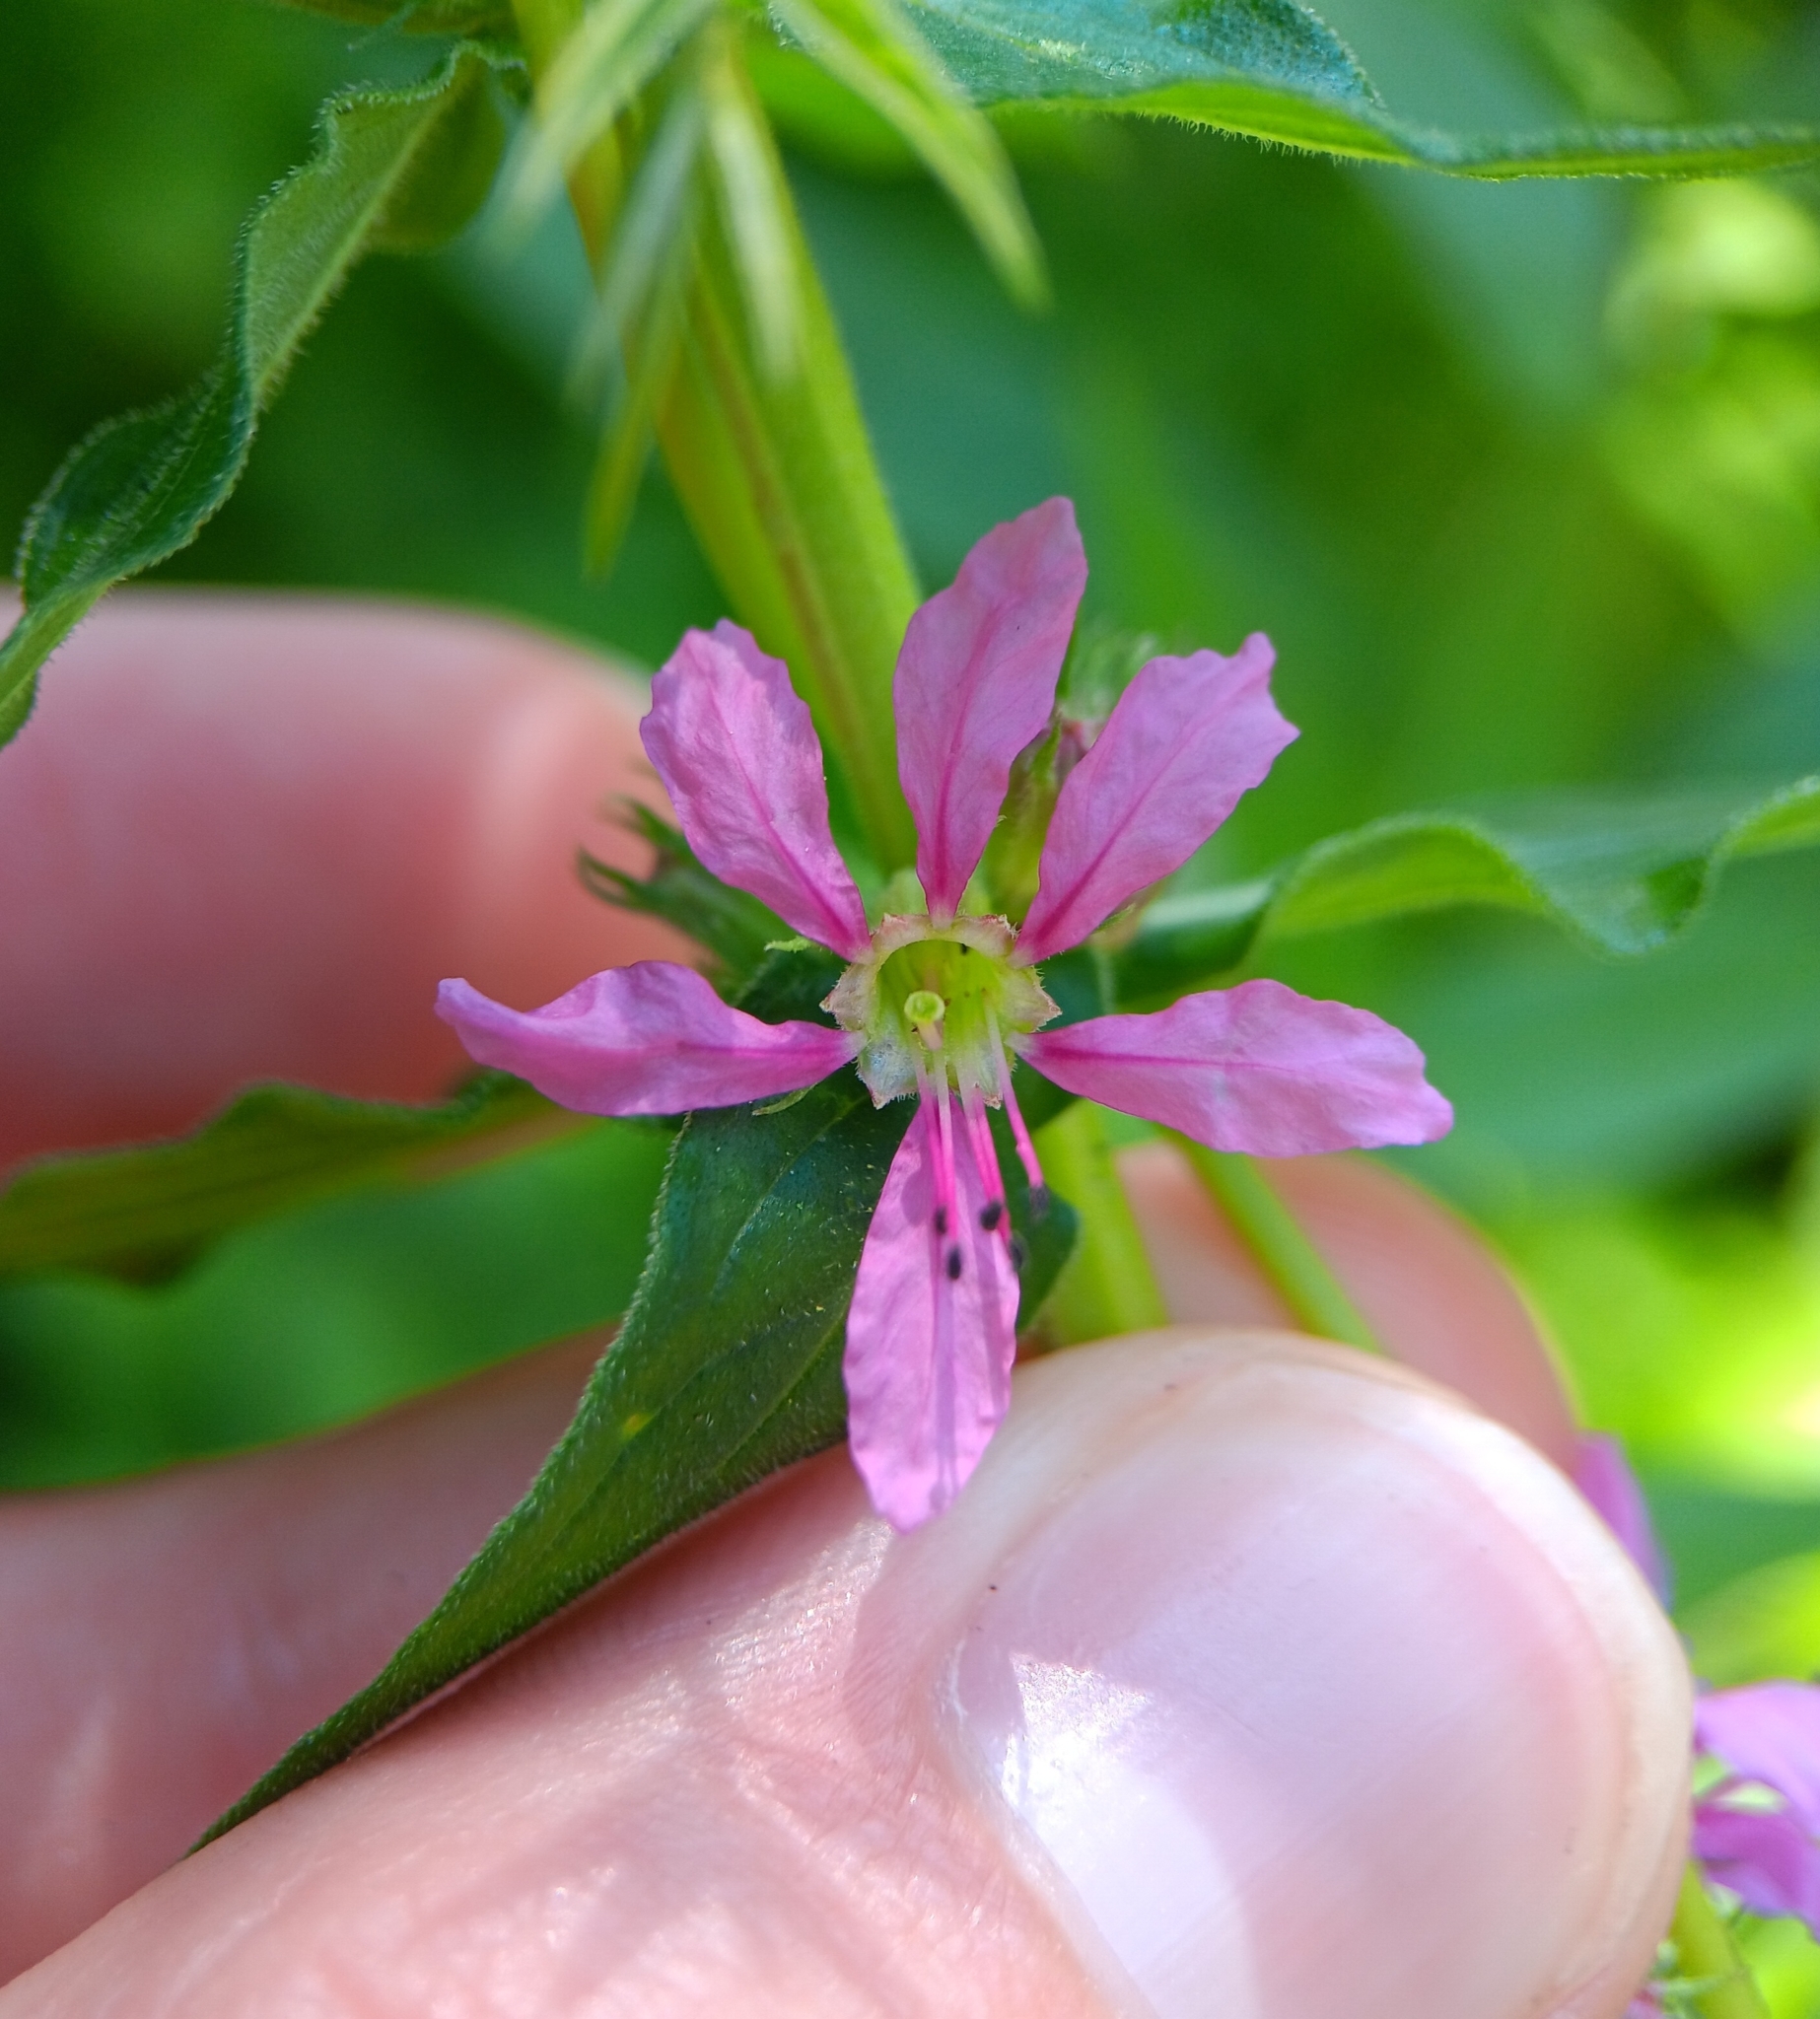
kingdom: Plantae
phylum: Tracheophyta
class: Magnoliopsida
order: Myrtales
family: Lythraceae
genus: Lythrum
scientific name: Lythrum salicaria
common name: Purple loosestrife
